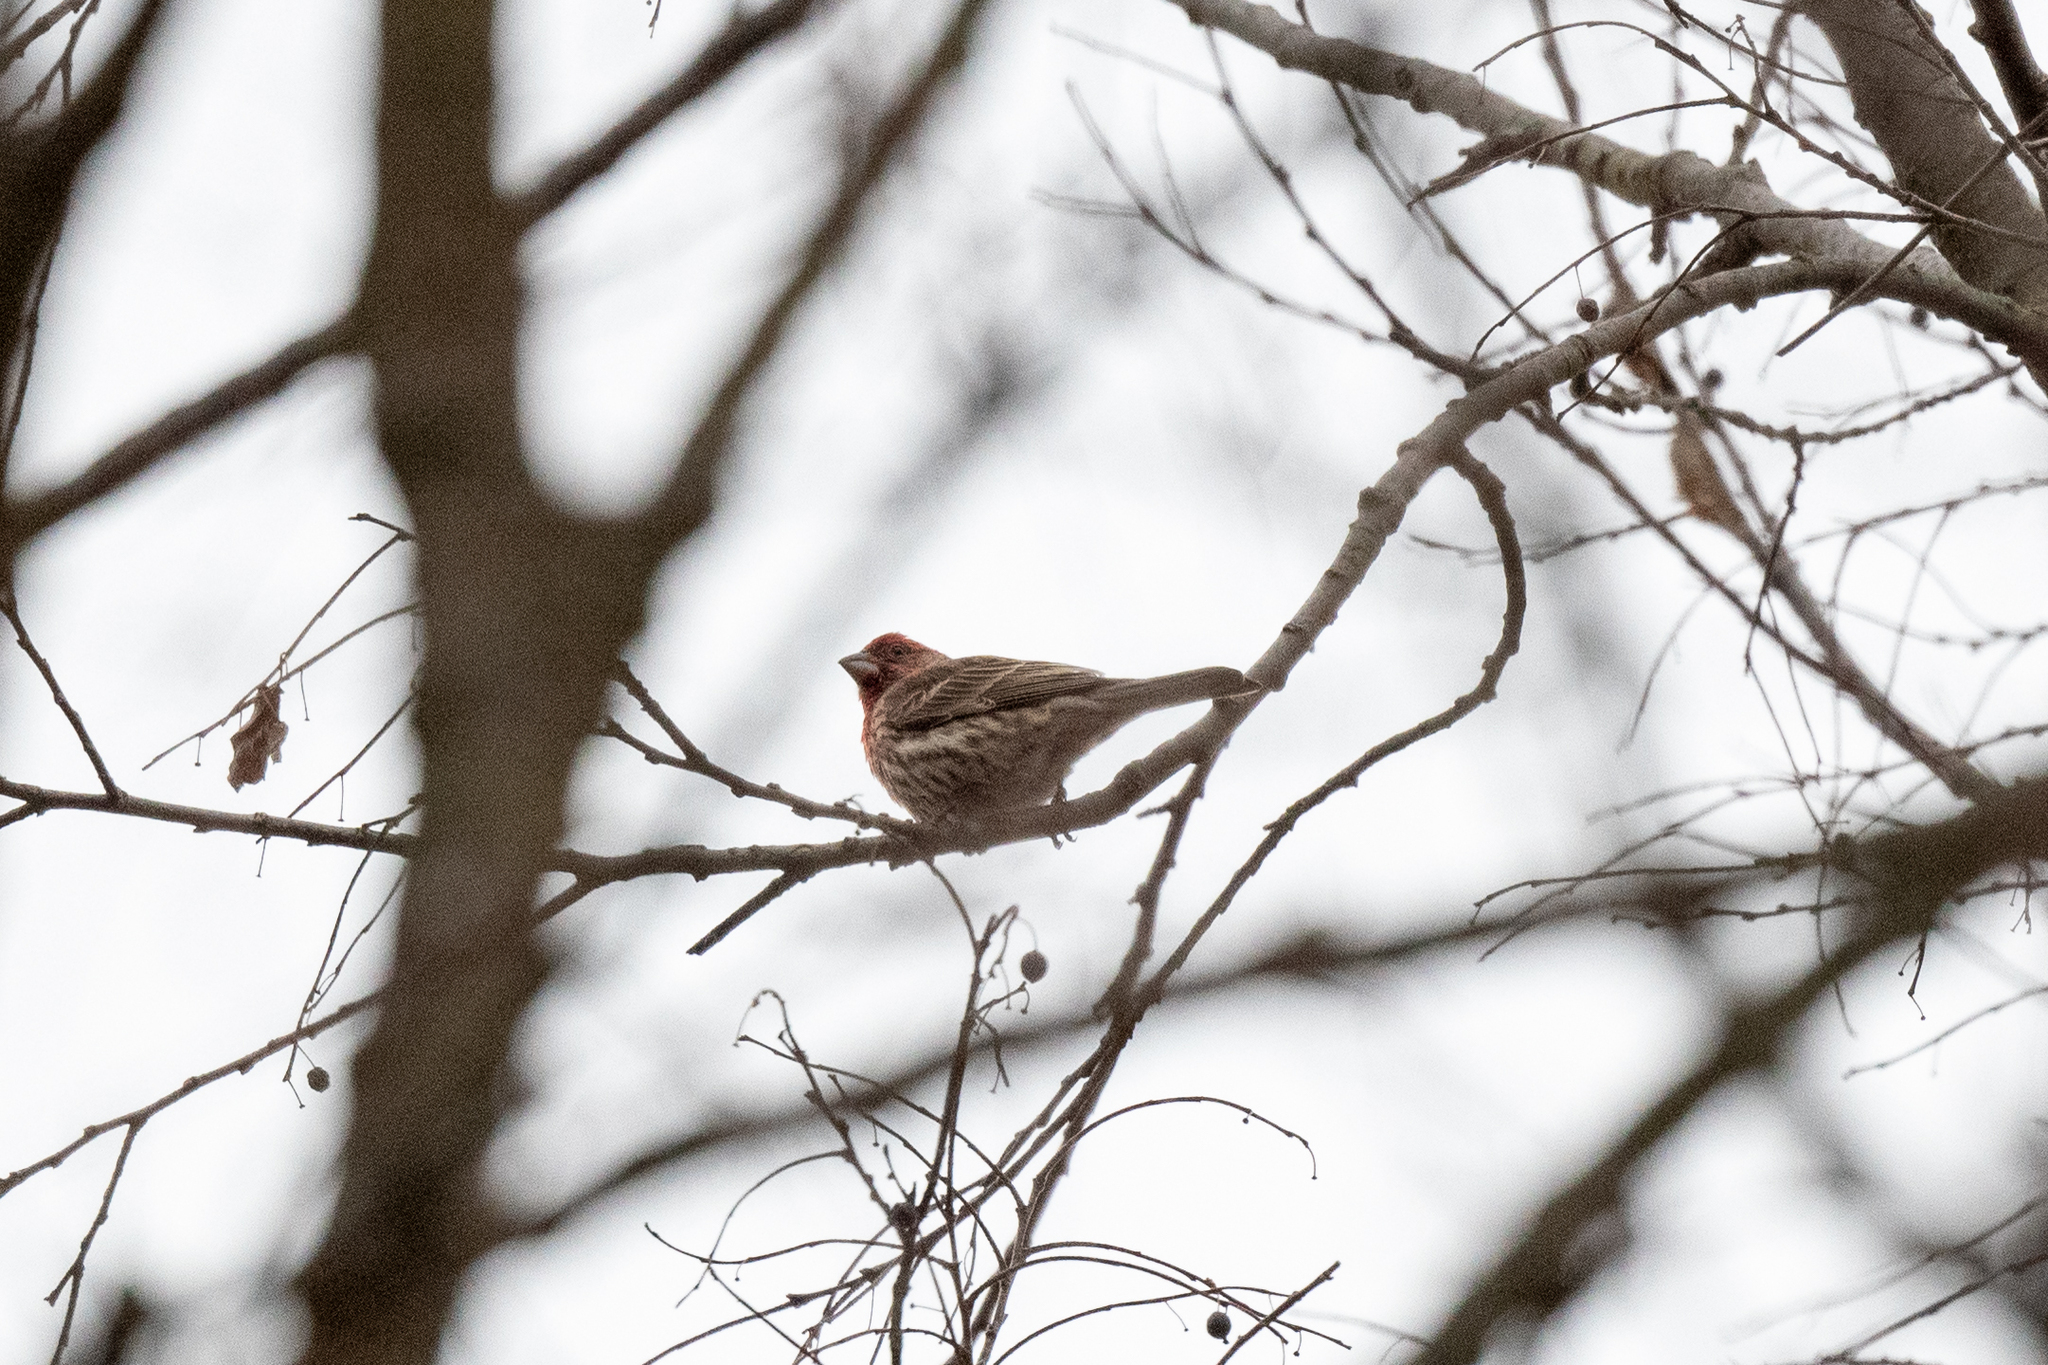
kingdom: Animalia
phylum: Chordata
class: Aves
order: Passeriformes
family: Fringillidae
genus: Haemorhous
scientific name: Haemorhous mexicanus
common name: House finch
